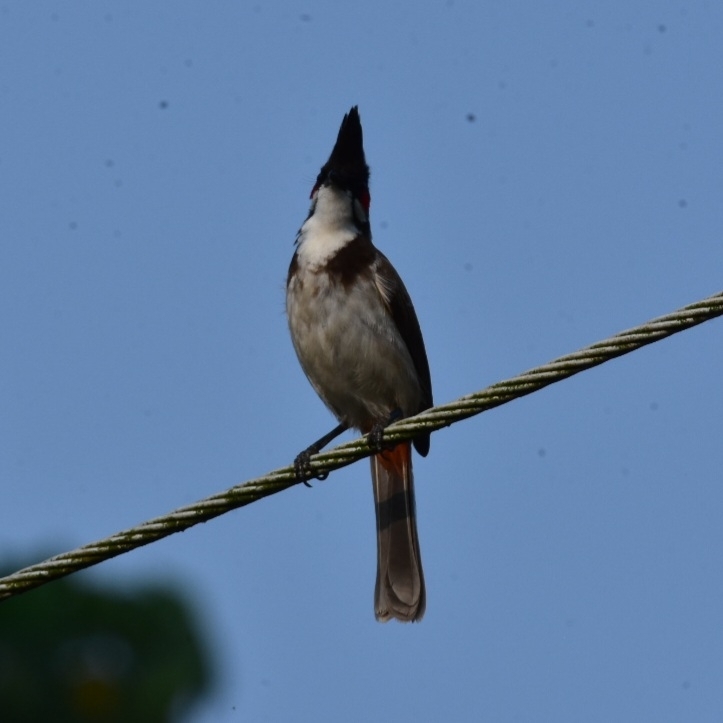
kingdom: Animalia
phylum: Chordata
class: Aves
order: Passeriformes
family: Pycnonotidae
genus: Pycnonotus
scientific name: Pycnonotus jocosus
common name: Red-whiskered bulbul
